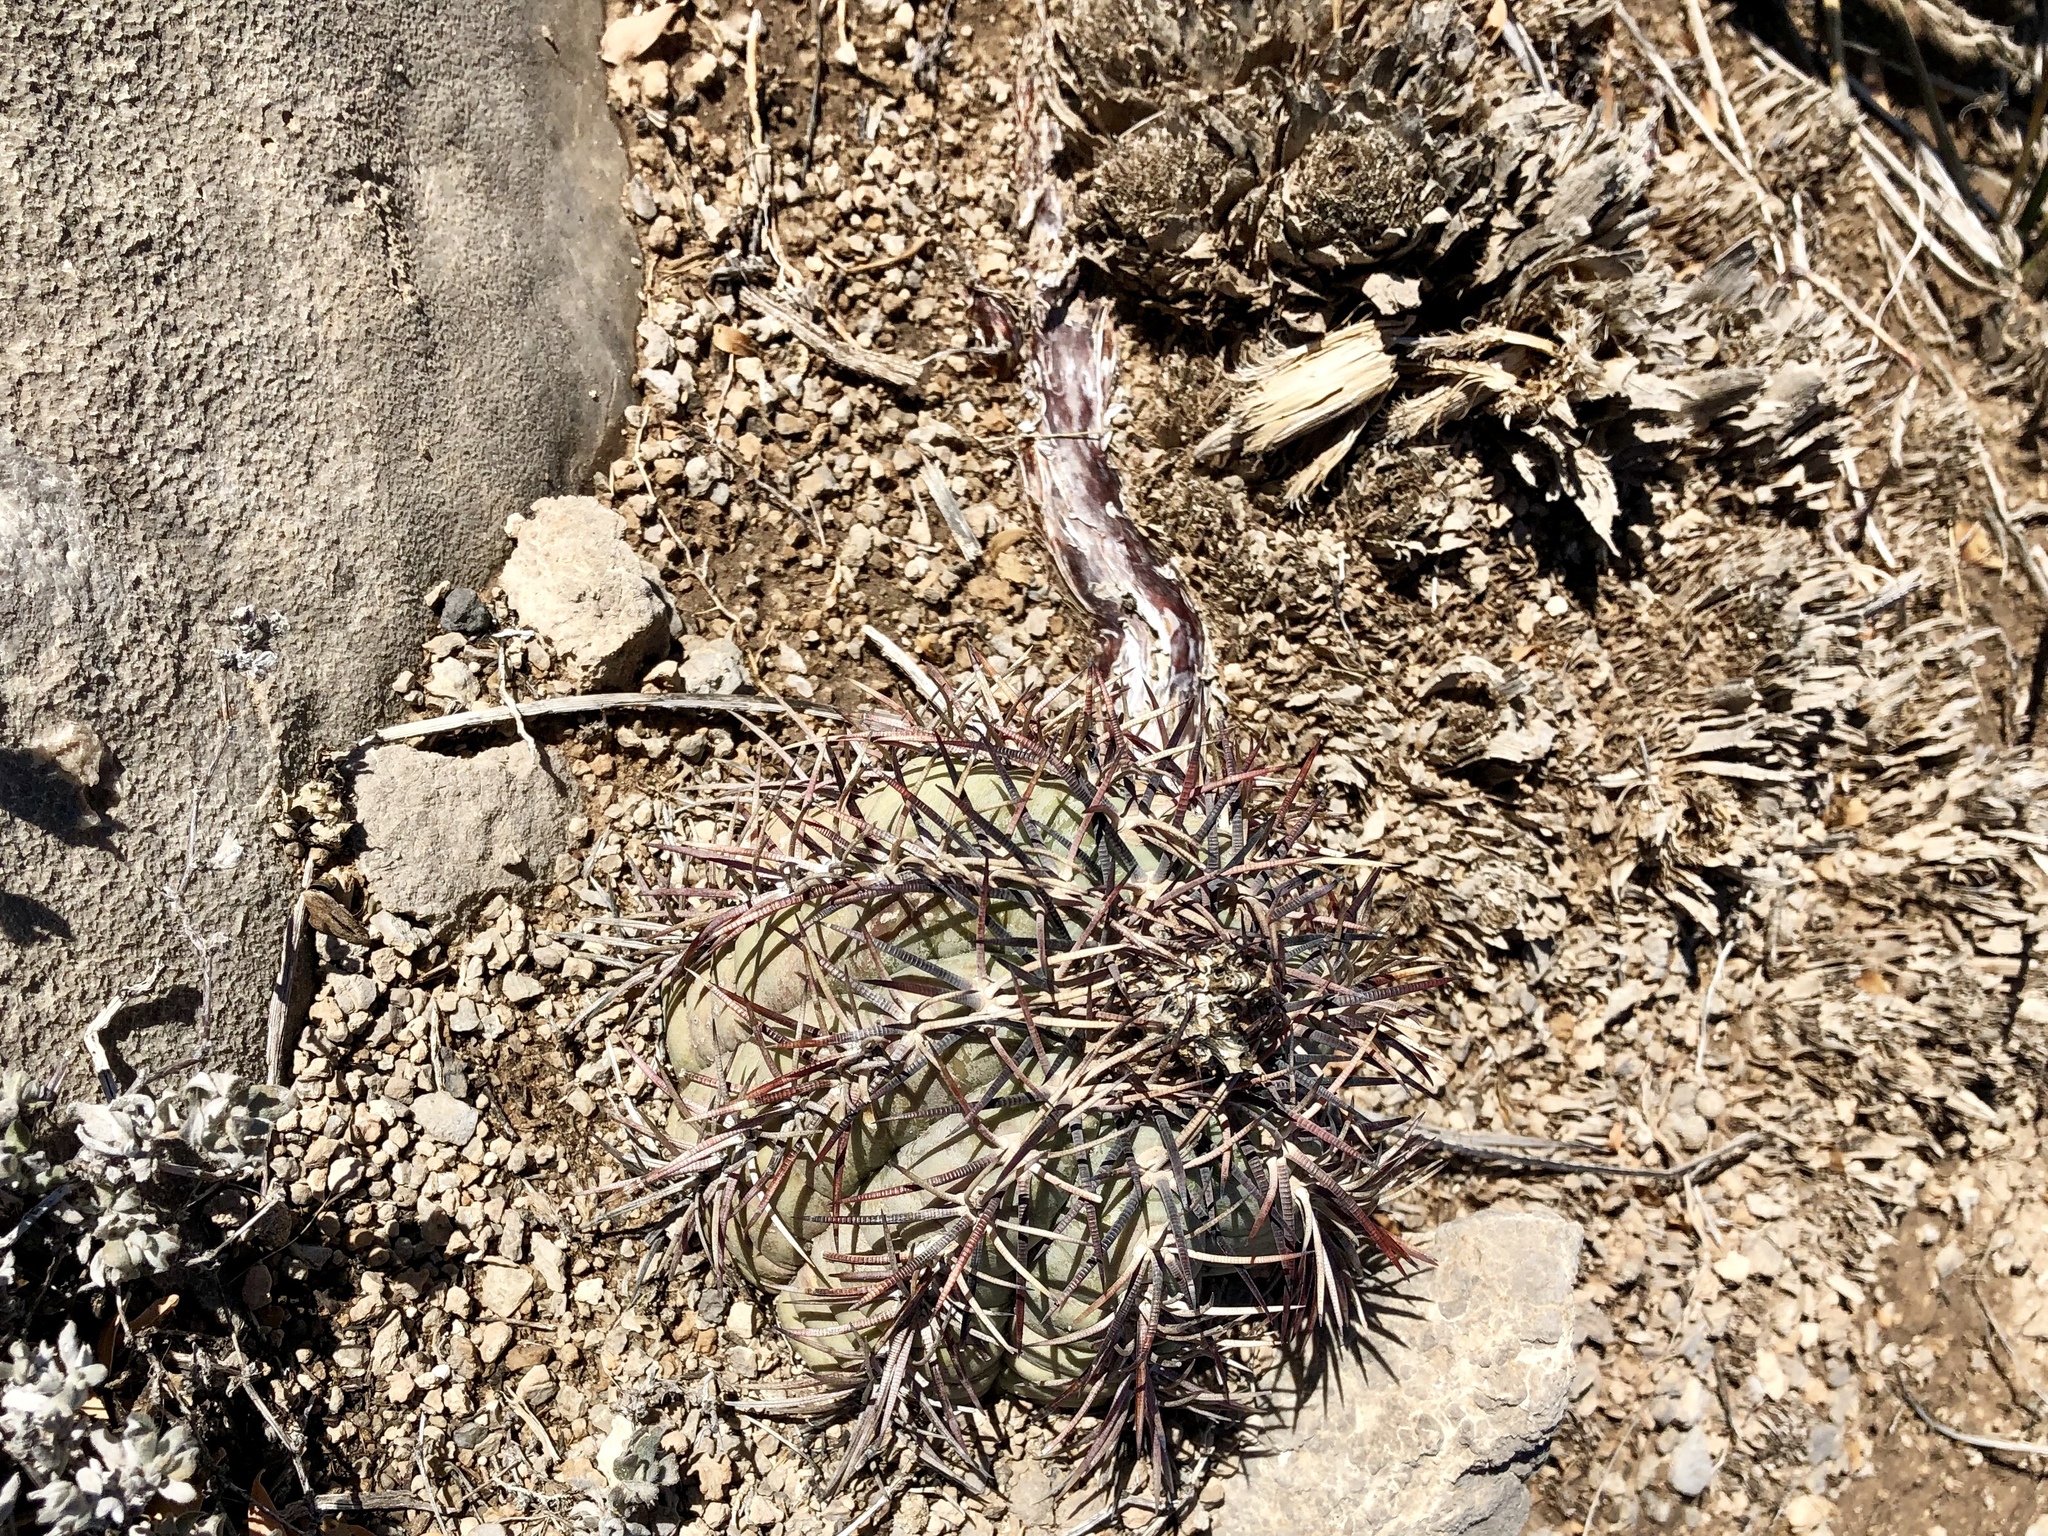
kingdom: Plantae
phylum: Tracheophyta
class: Magnoliopsida
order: Caryophyllales
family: Cactaceae
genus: Echinocactus
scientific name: Echinocactus horizonthalonius
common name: Devilshead
